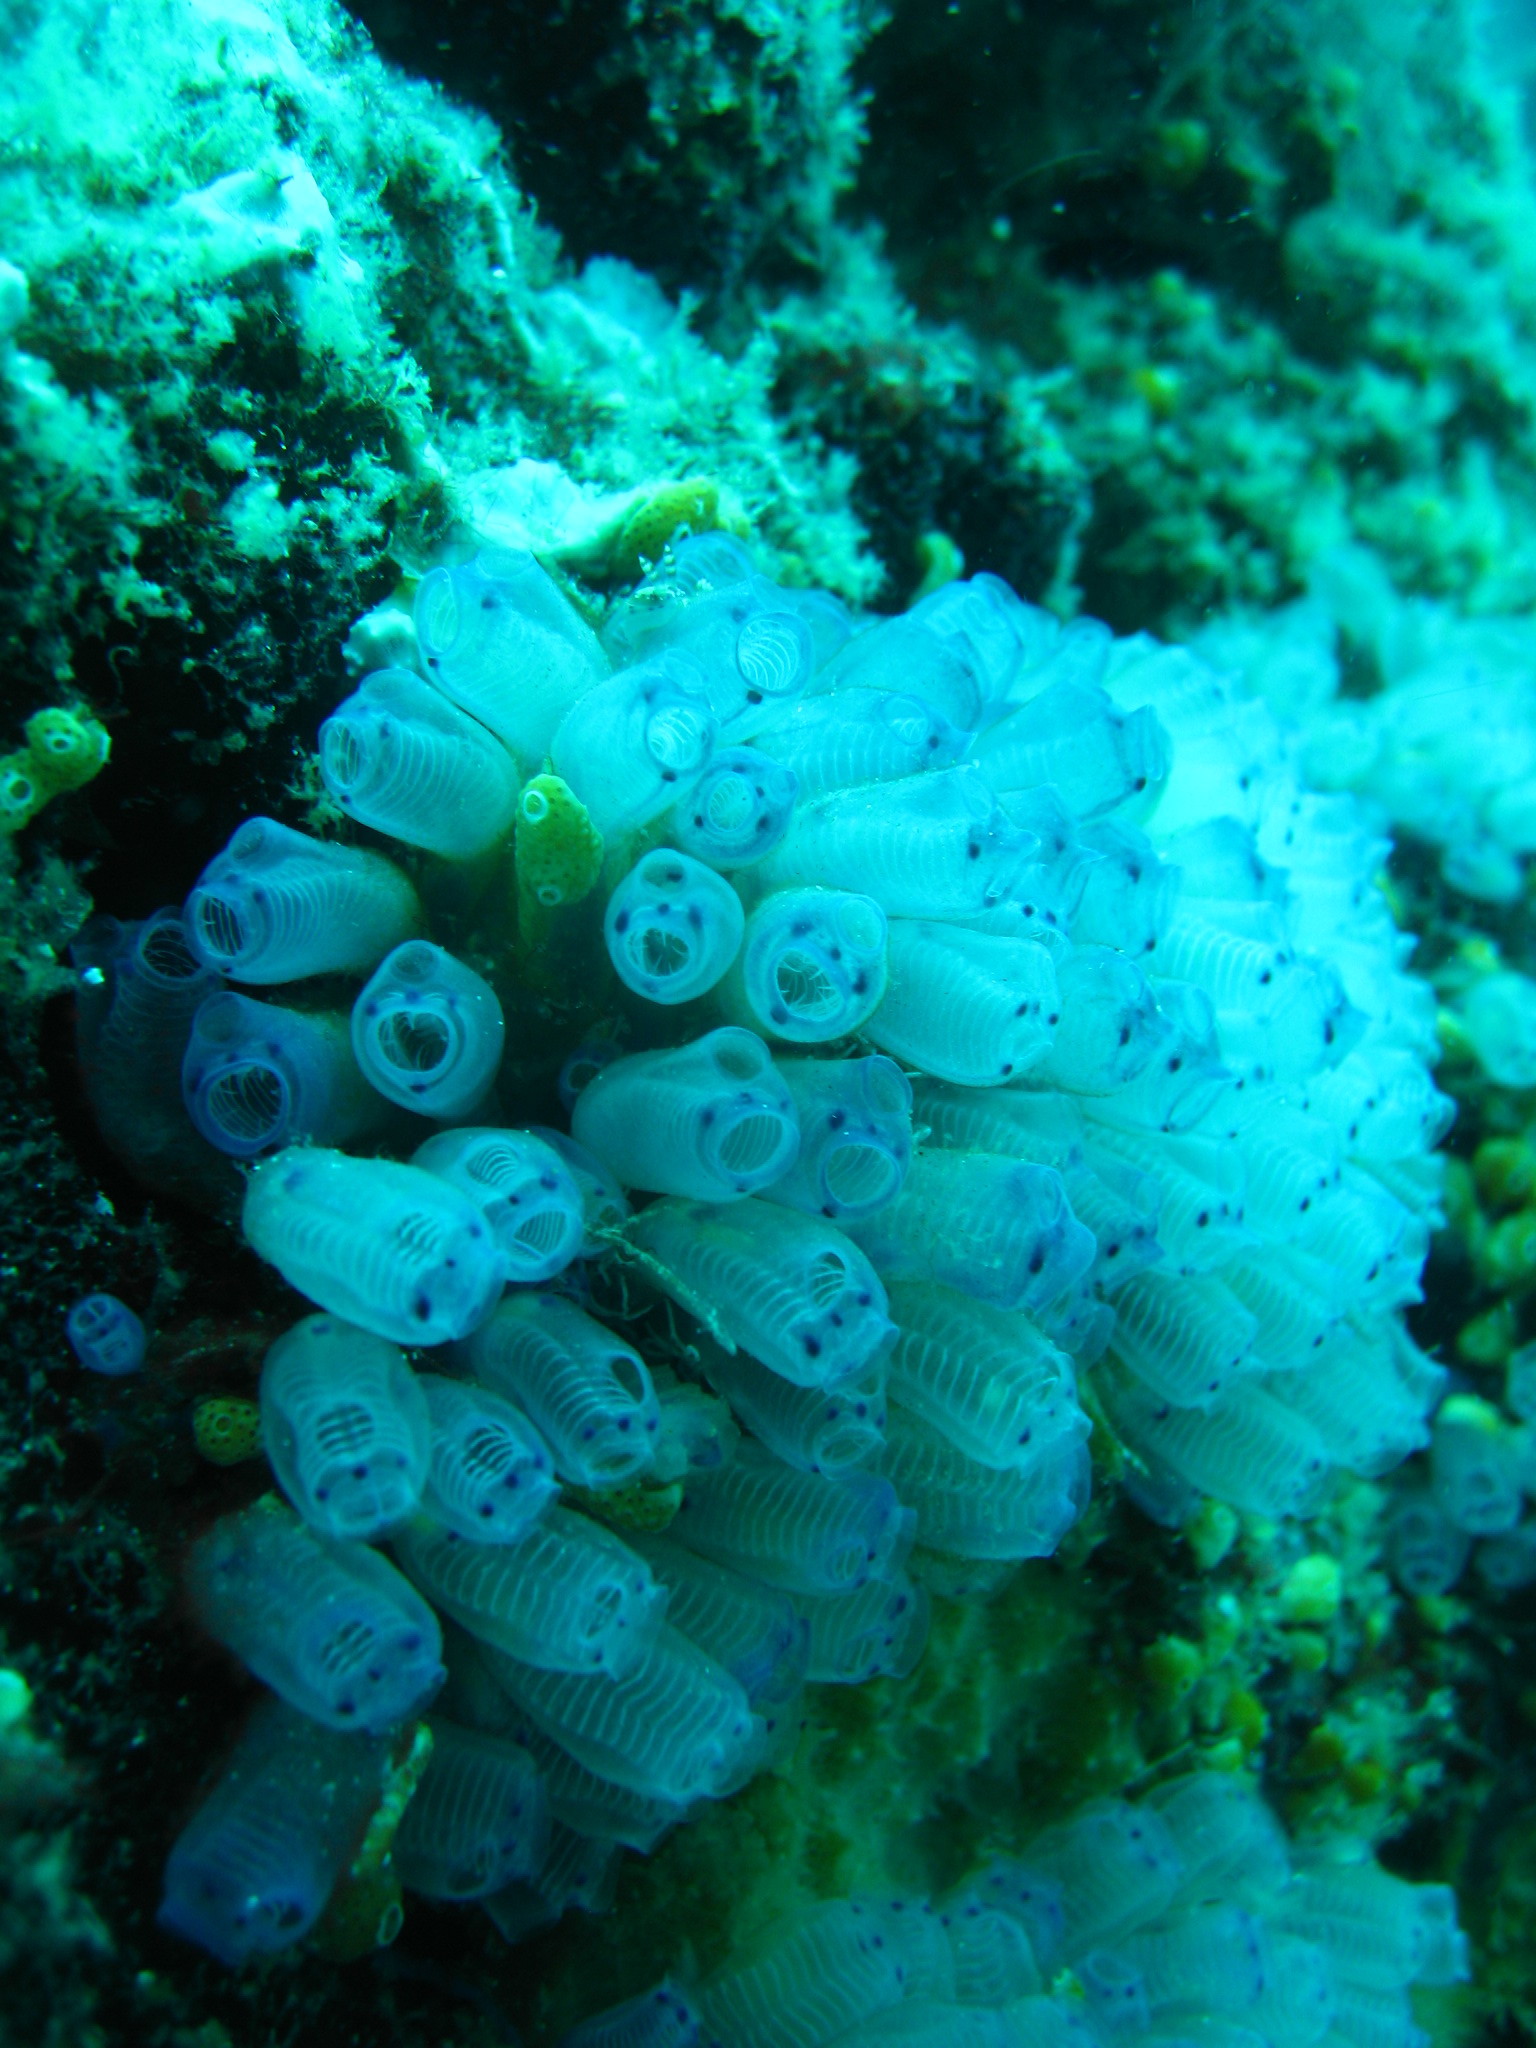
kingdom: Animalia
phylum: Chordata
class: Ascidiacea
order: Aplousobranchia
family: Clavelinidae
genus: Clavelina
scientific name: Clavelina moluccensis
